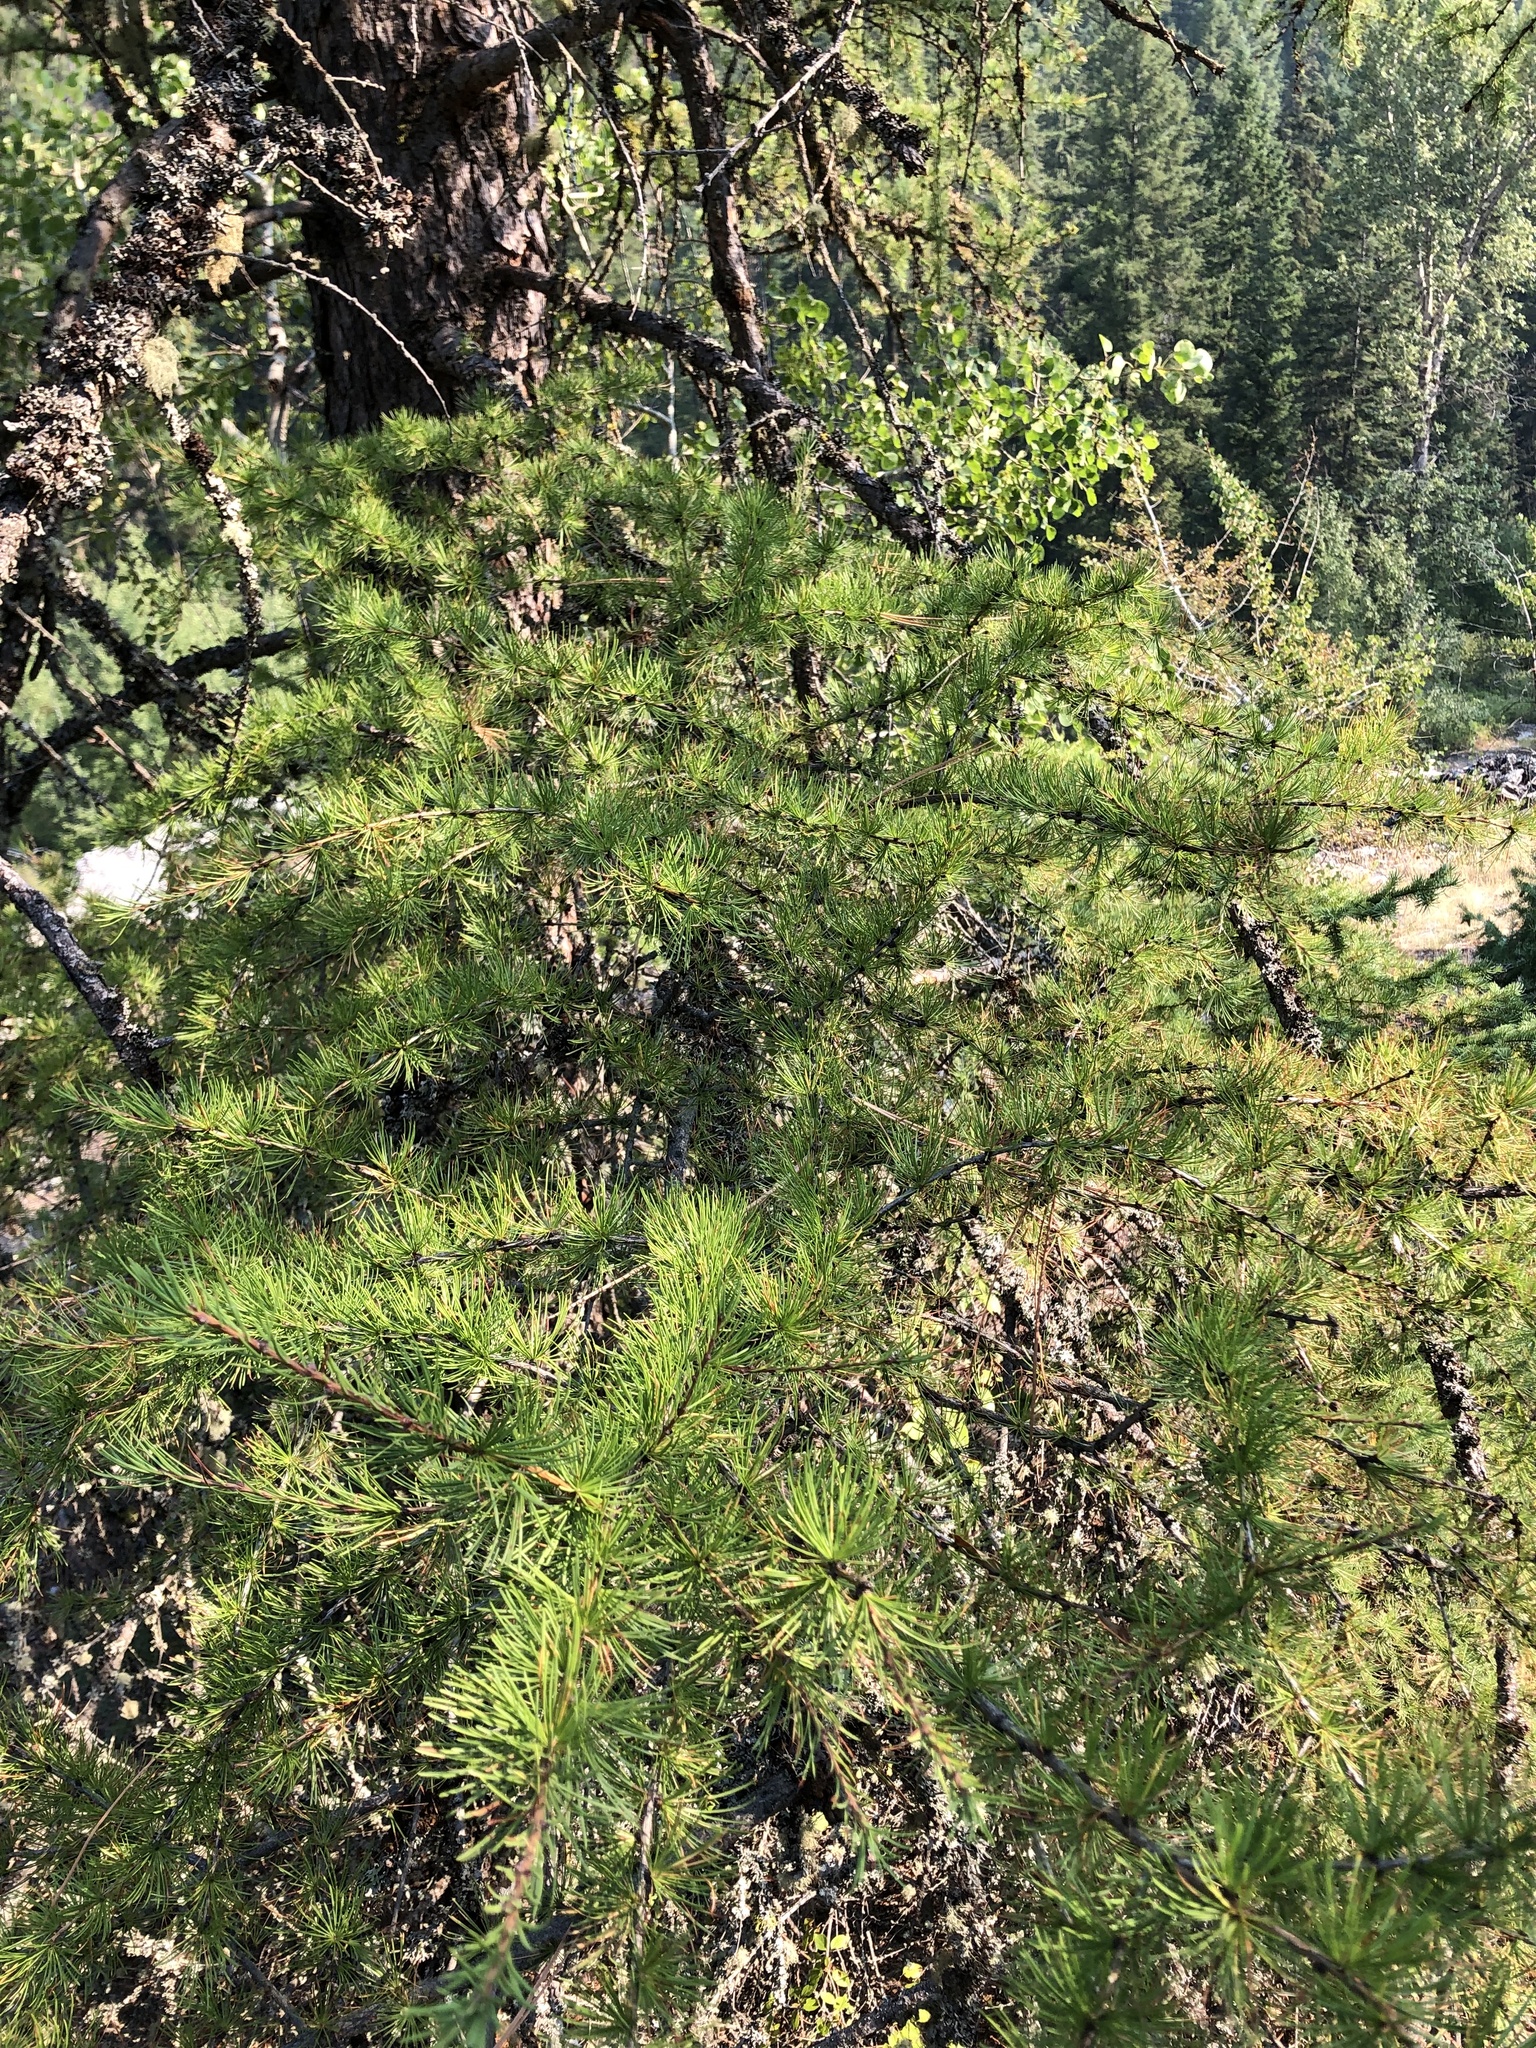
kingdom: Plantae
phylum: Tracheophyta
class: Pinopsida
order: Pinales
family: Pinaceae
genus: Larix
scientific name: Larix occidentalis
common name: Western larch
